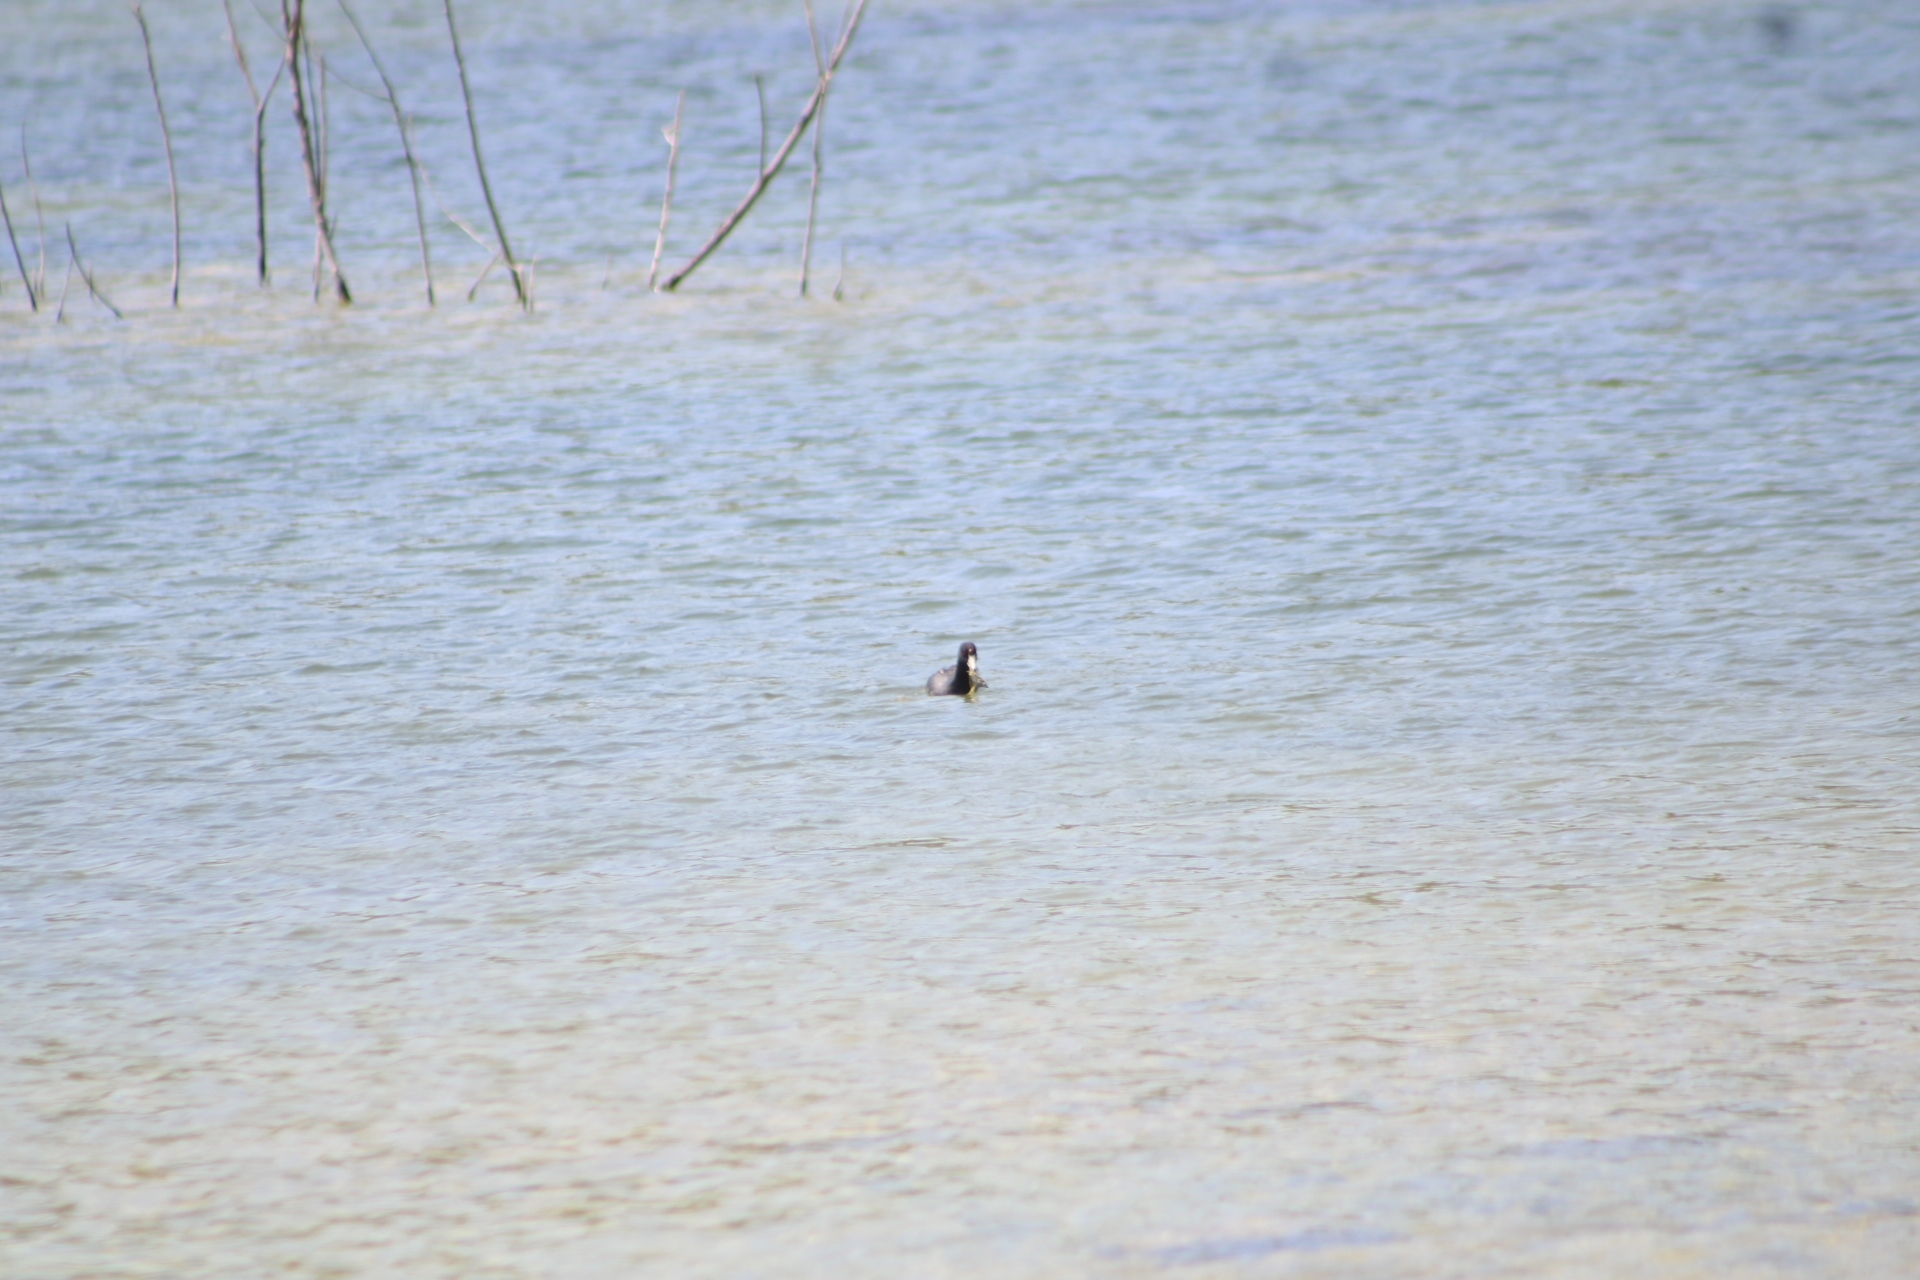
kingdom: Animalia
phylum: Chordata
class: Aves
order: Gruiformes
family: Rallidae
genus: Fulica
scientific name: Fulica americana
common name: American coot
